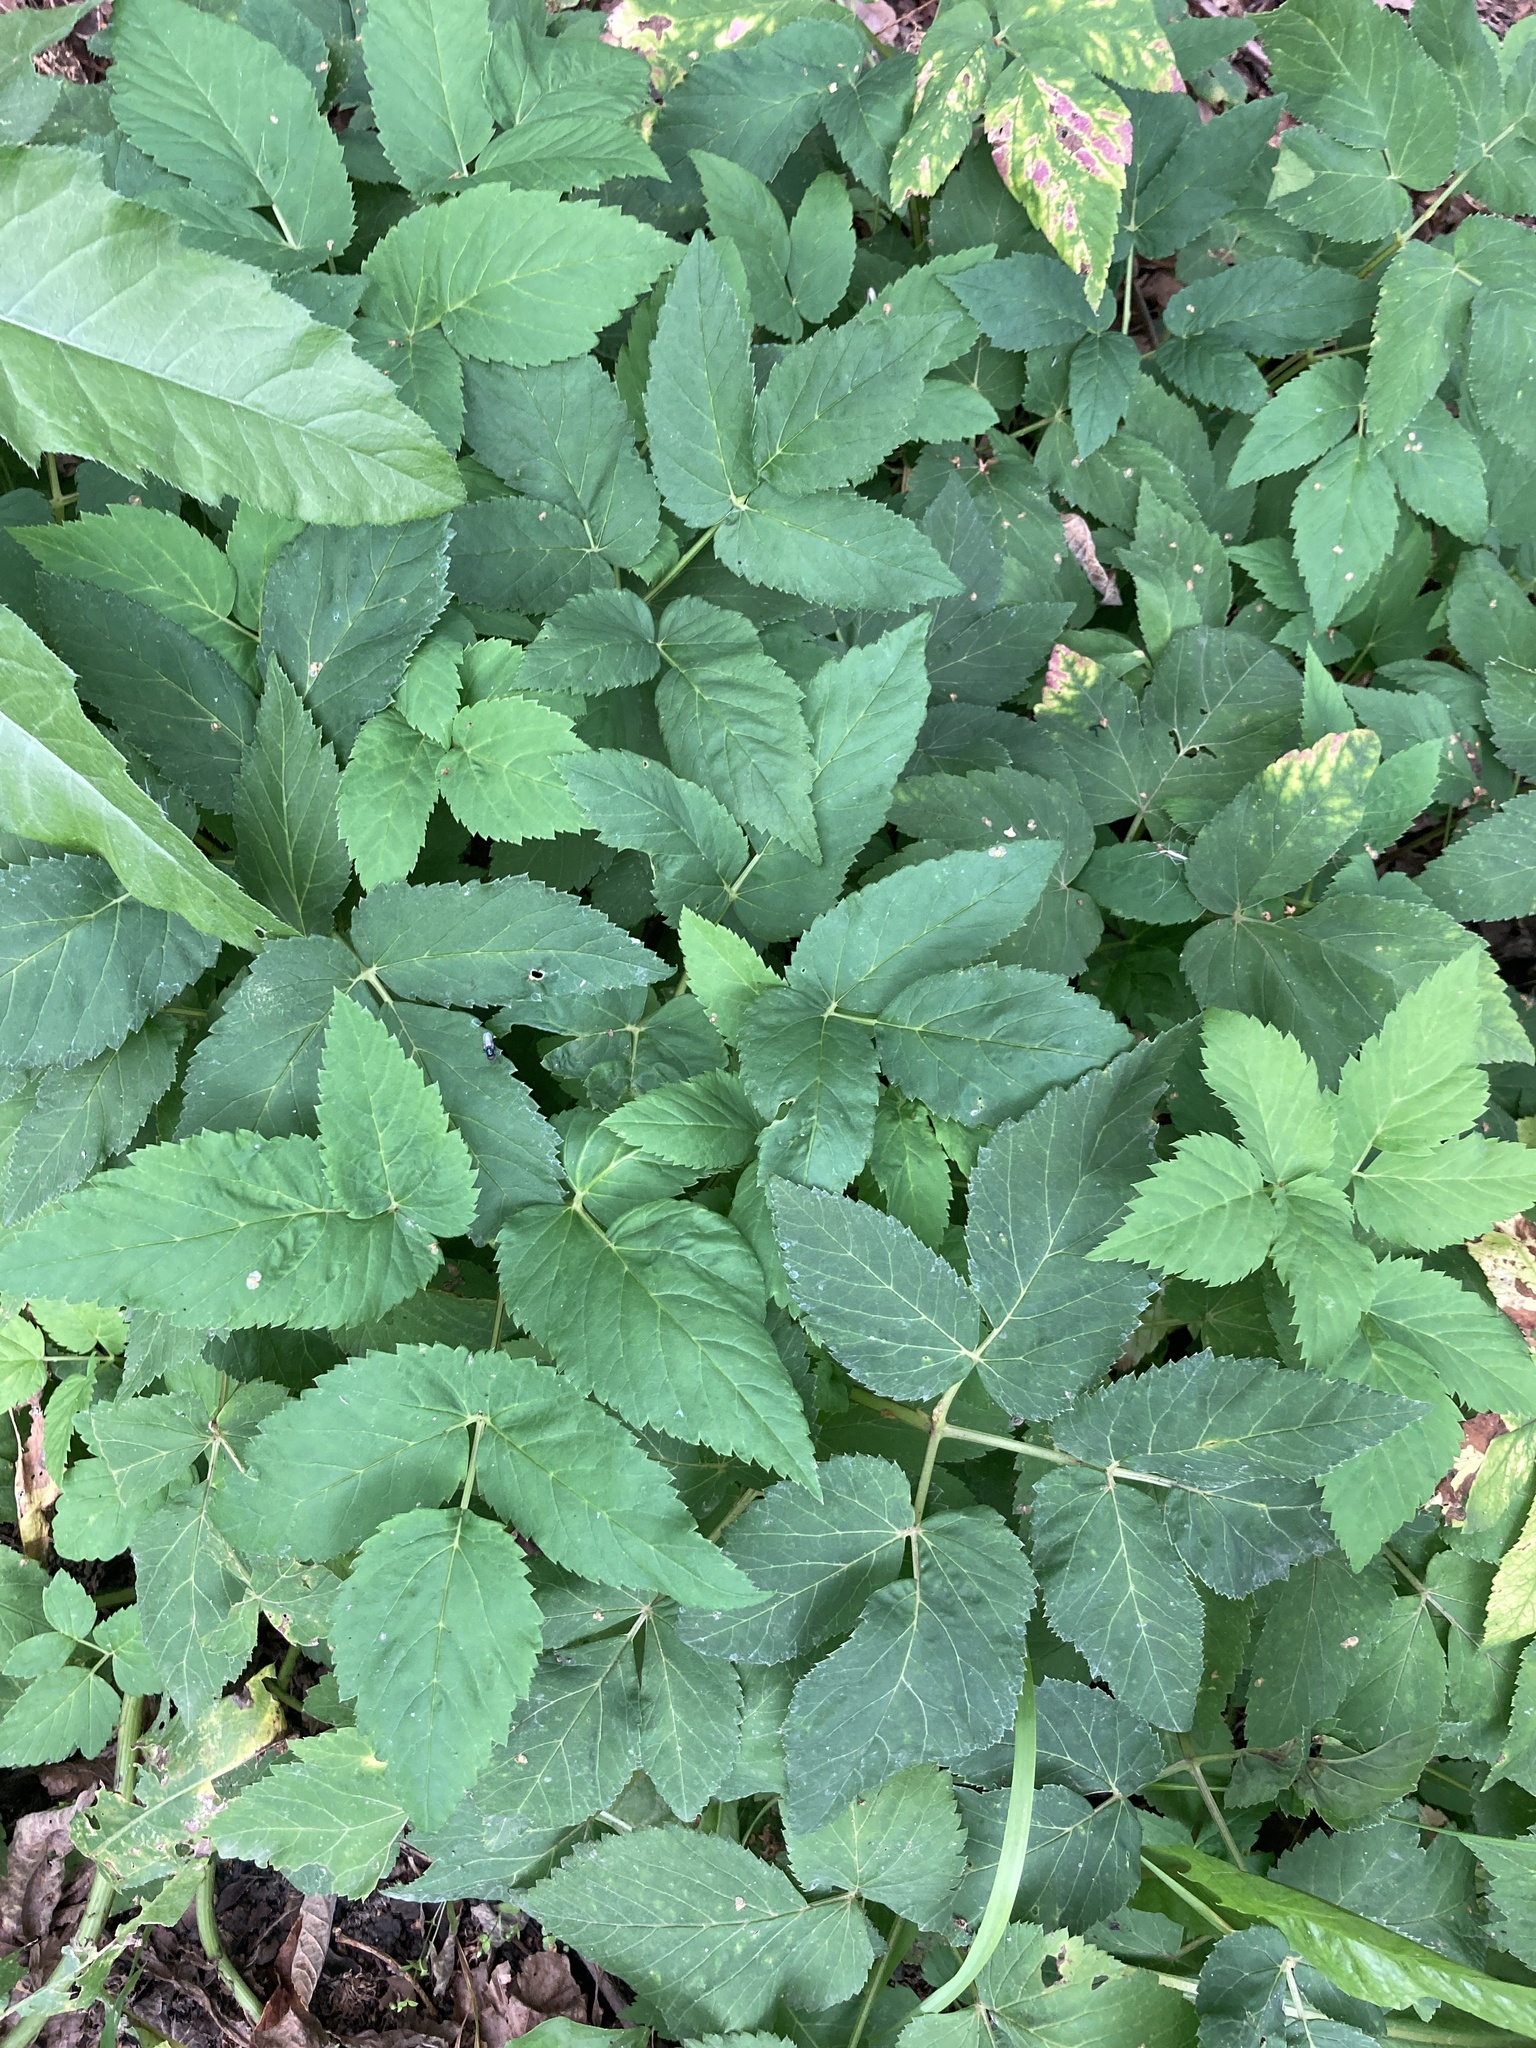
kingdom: Plantae
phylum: Tracheophyta
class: Magnoliopsida
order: Apiales
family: Apiaceae
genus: Aegopodium
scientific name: Aegopodium podagraria
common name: Ground-elder
